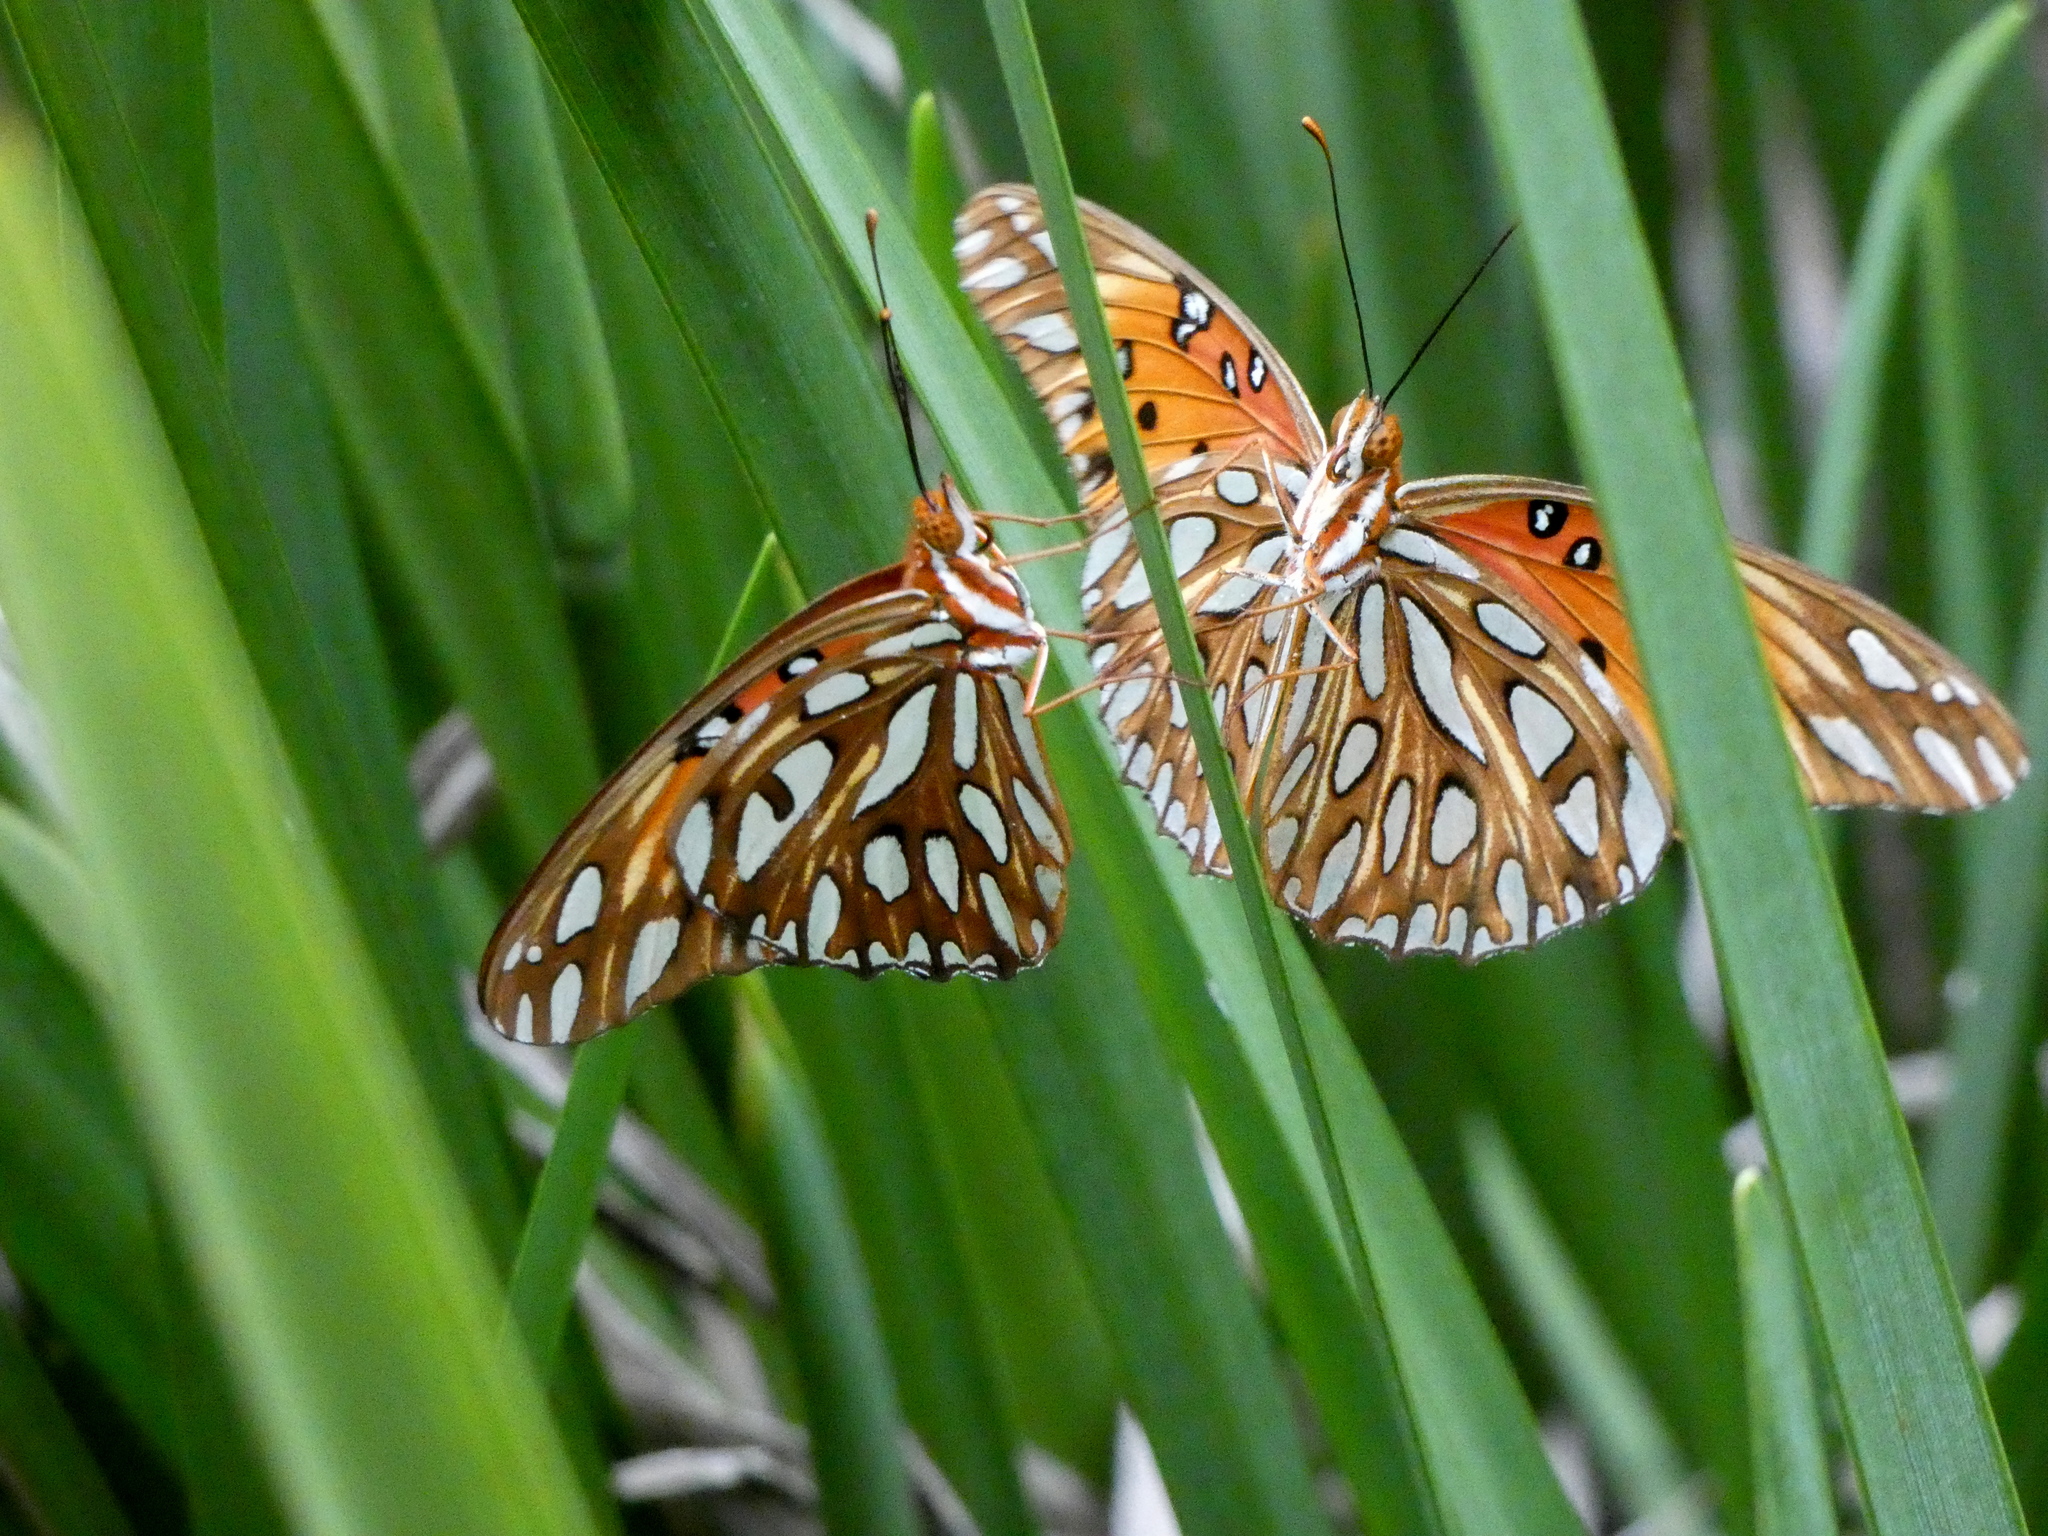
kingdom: Animalia
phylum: Arthropoda
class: Insecta
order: Lepidoptera
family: Nymphalidae
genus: Dione
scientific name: Dione vanillae
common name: Gulf fritillary
